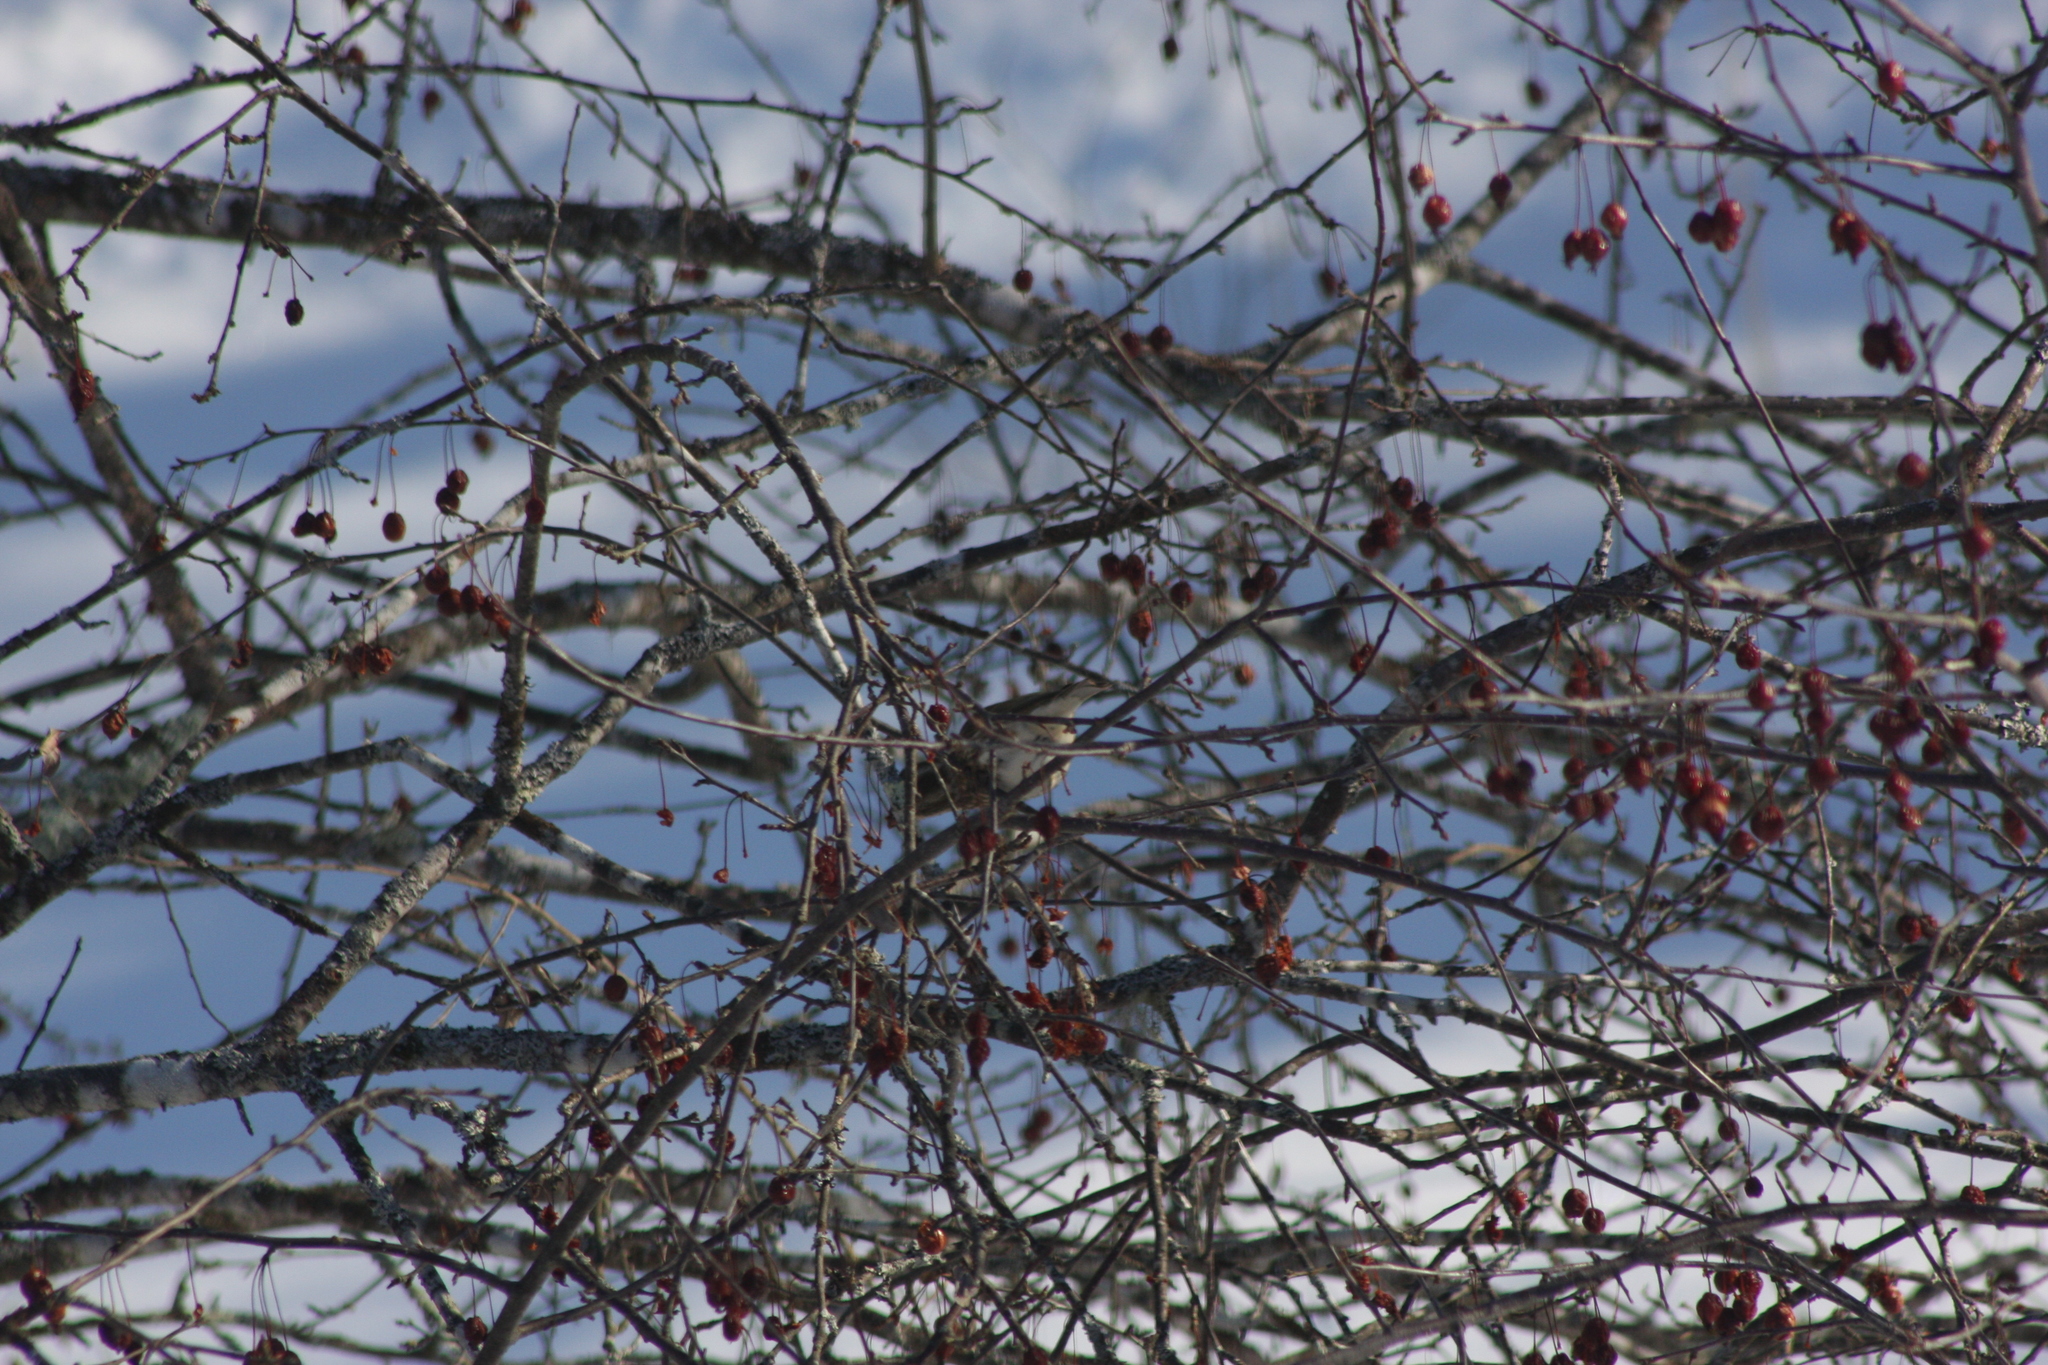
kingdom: Animalia
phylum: Chordata
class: Aves
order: Passeriformes
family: Fringillidae
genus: Haemorhous
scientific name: Haemorhous purpureus
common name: Purple finch
